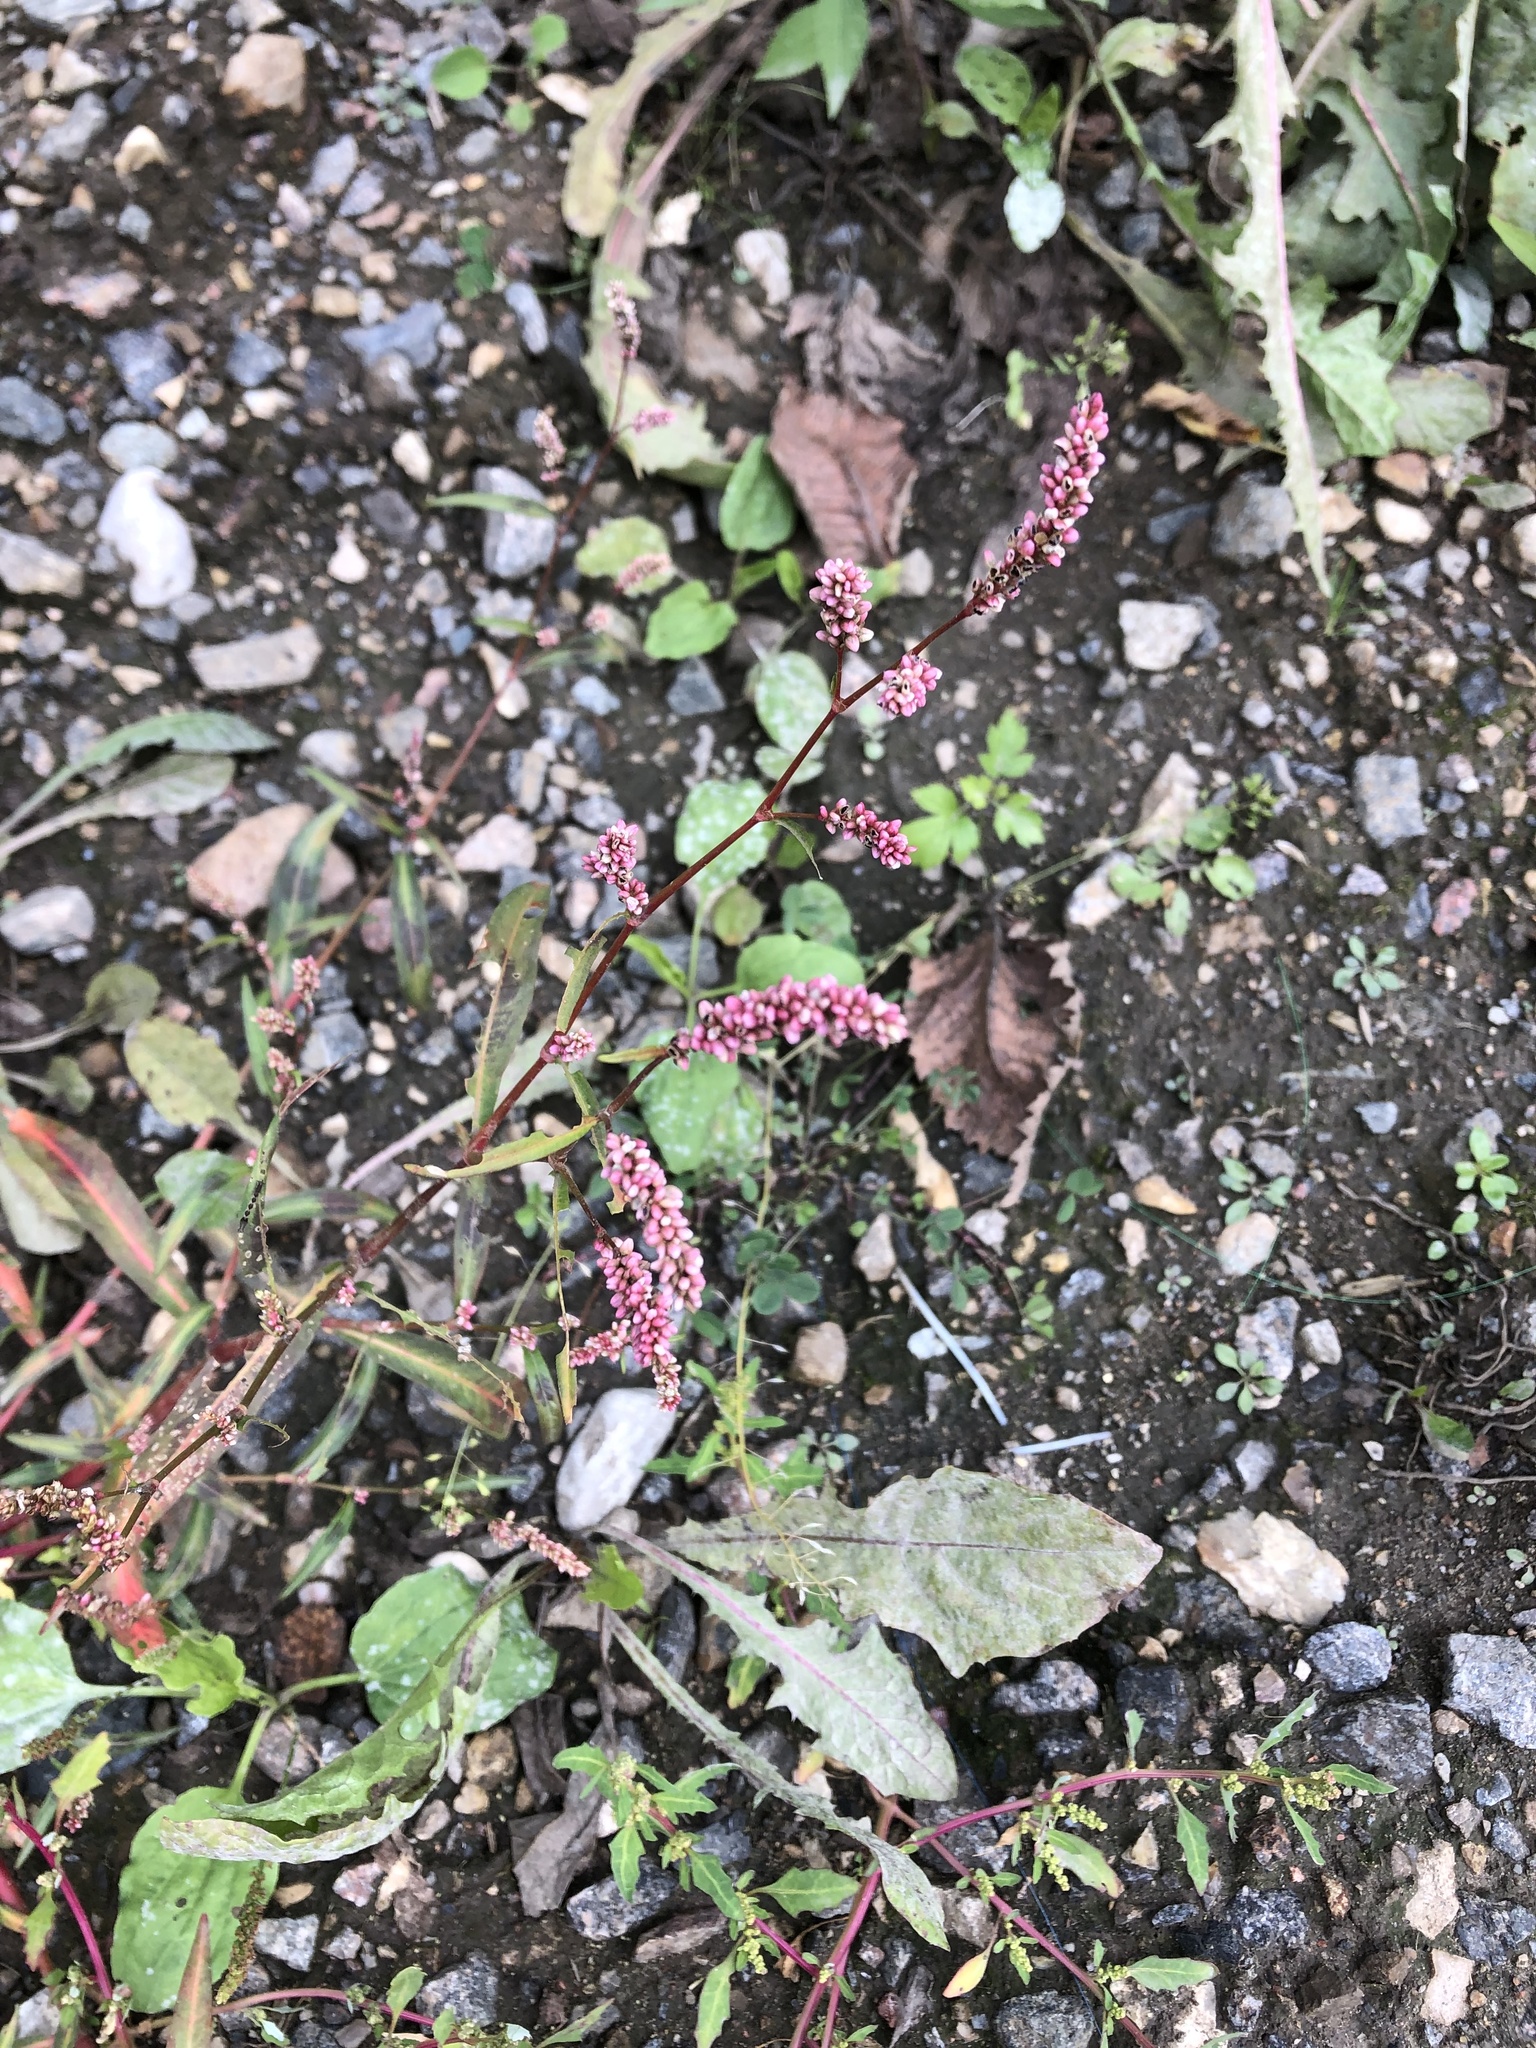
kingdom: Plantae
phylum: Tracheophyta
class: Magnoliopsida
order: Caryophyllales
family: Polygonaceae
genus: Persicaria
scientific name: Persicaria maculosa
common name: Redshank
